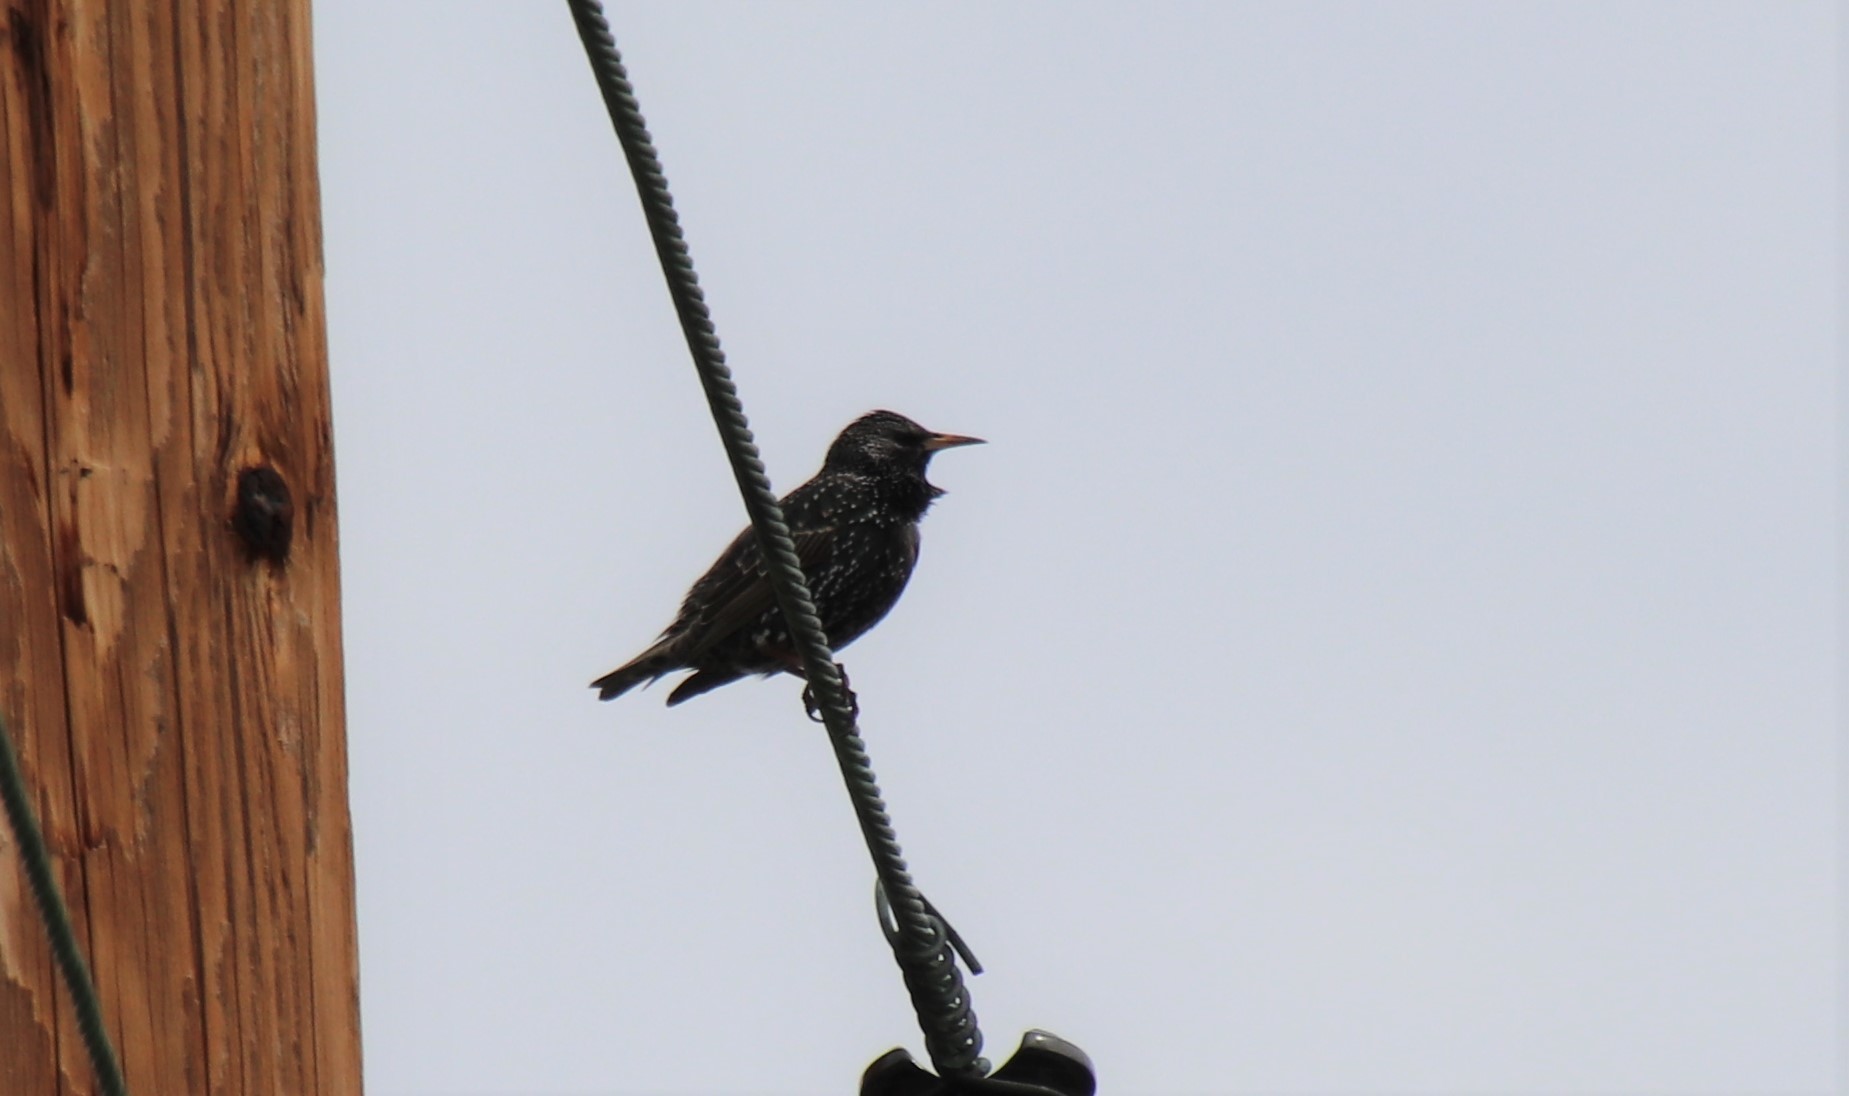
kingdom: Animalia
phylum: Chordata
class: Aves
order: Passeriformes
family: Sturnidae
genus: Sturnus
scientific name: Sturnus vulgaris
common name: Common starling
